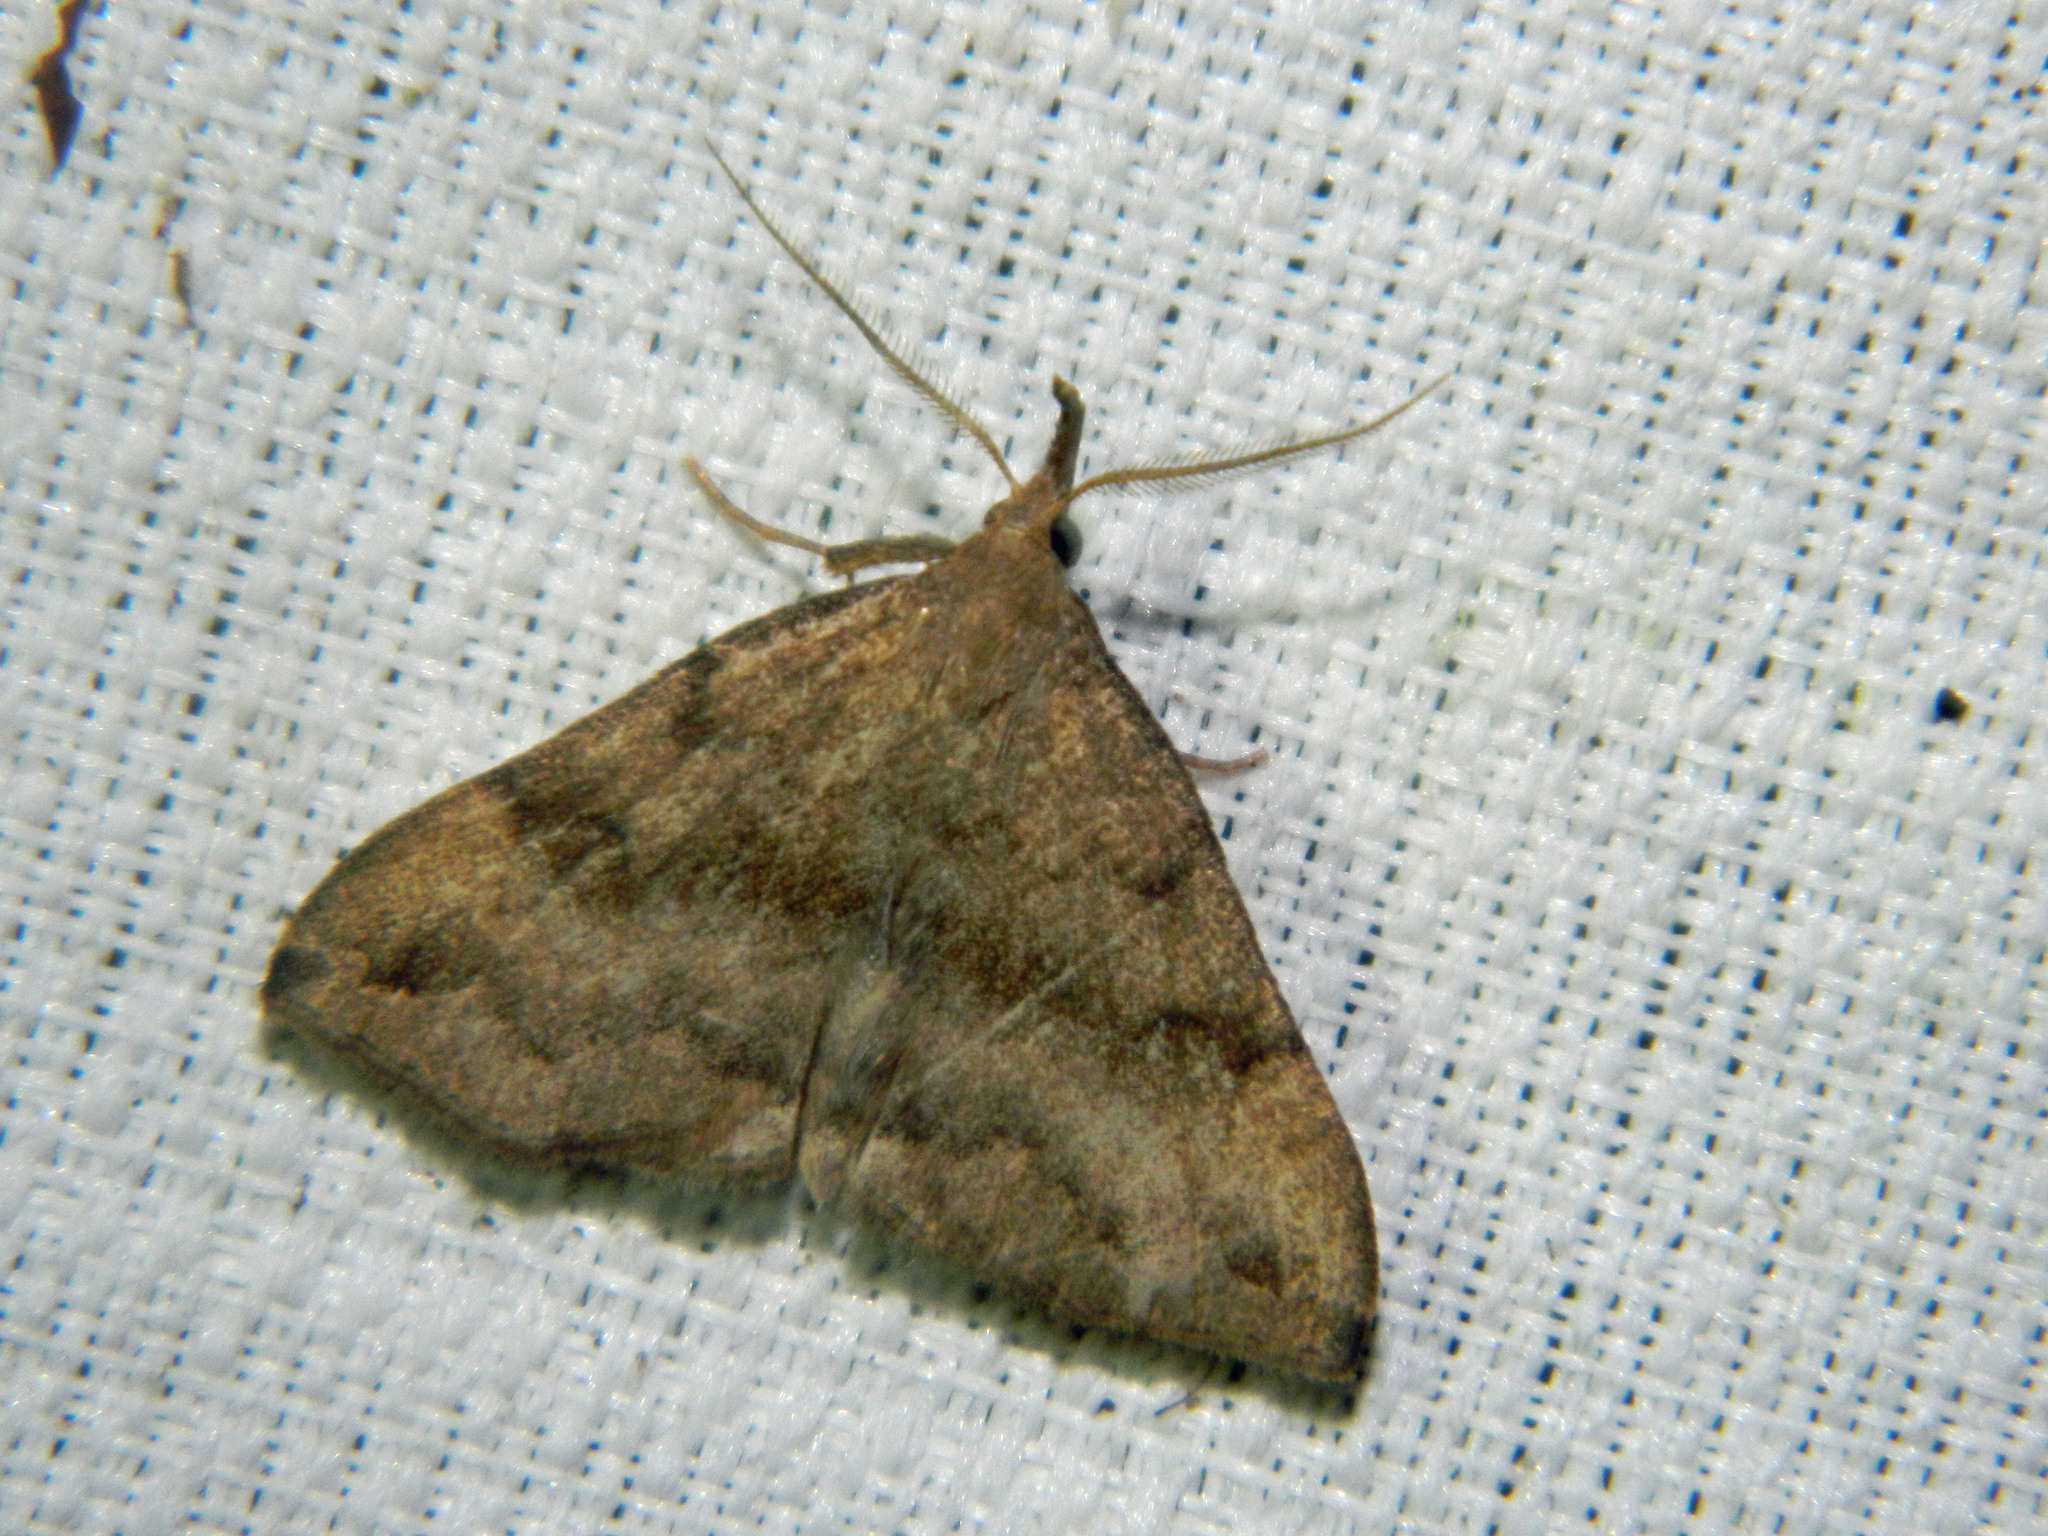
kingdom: Animalia
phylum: Arthropoda
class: Insecta
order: Lepidoptera
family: Erebidae
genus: Phalaenostola
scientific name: Phalaenostola eumelusalis
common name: Dark phalaenostola moth
